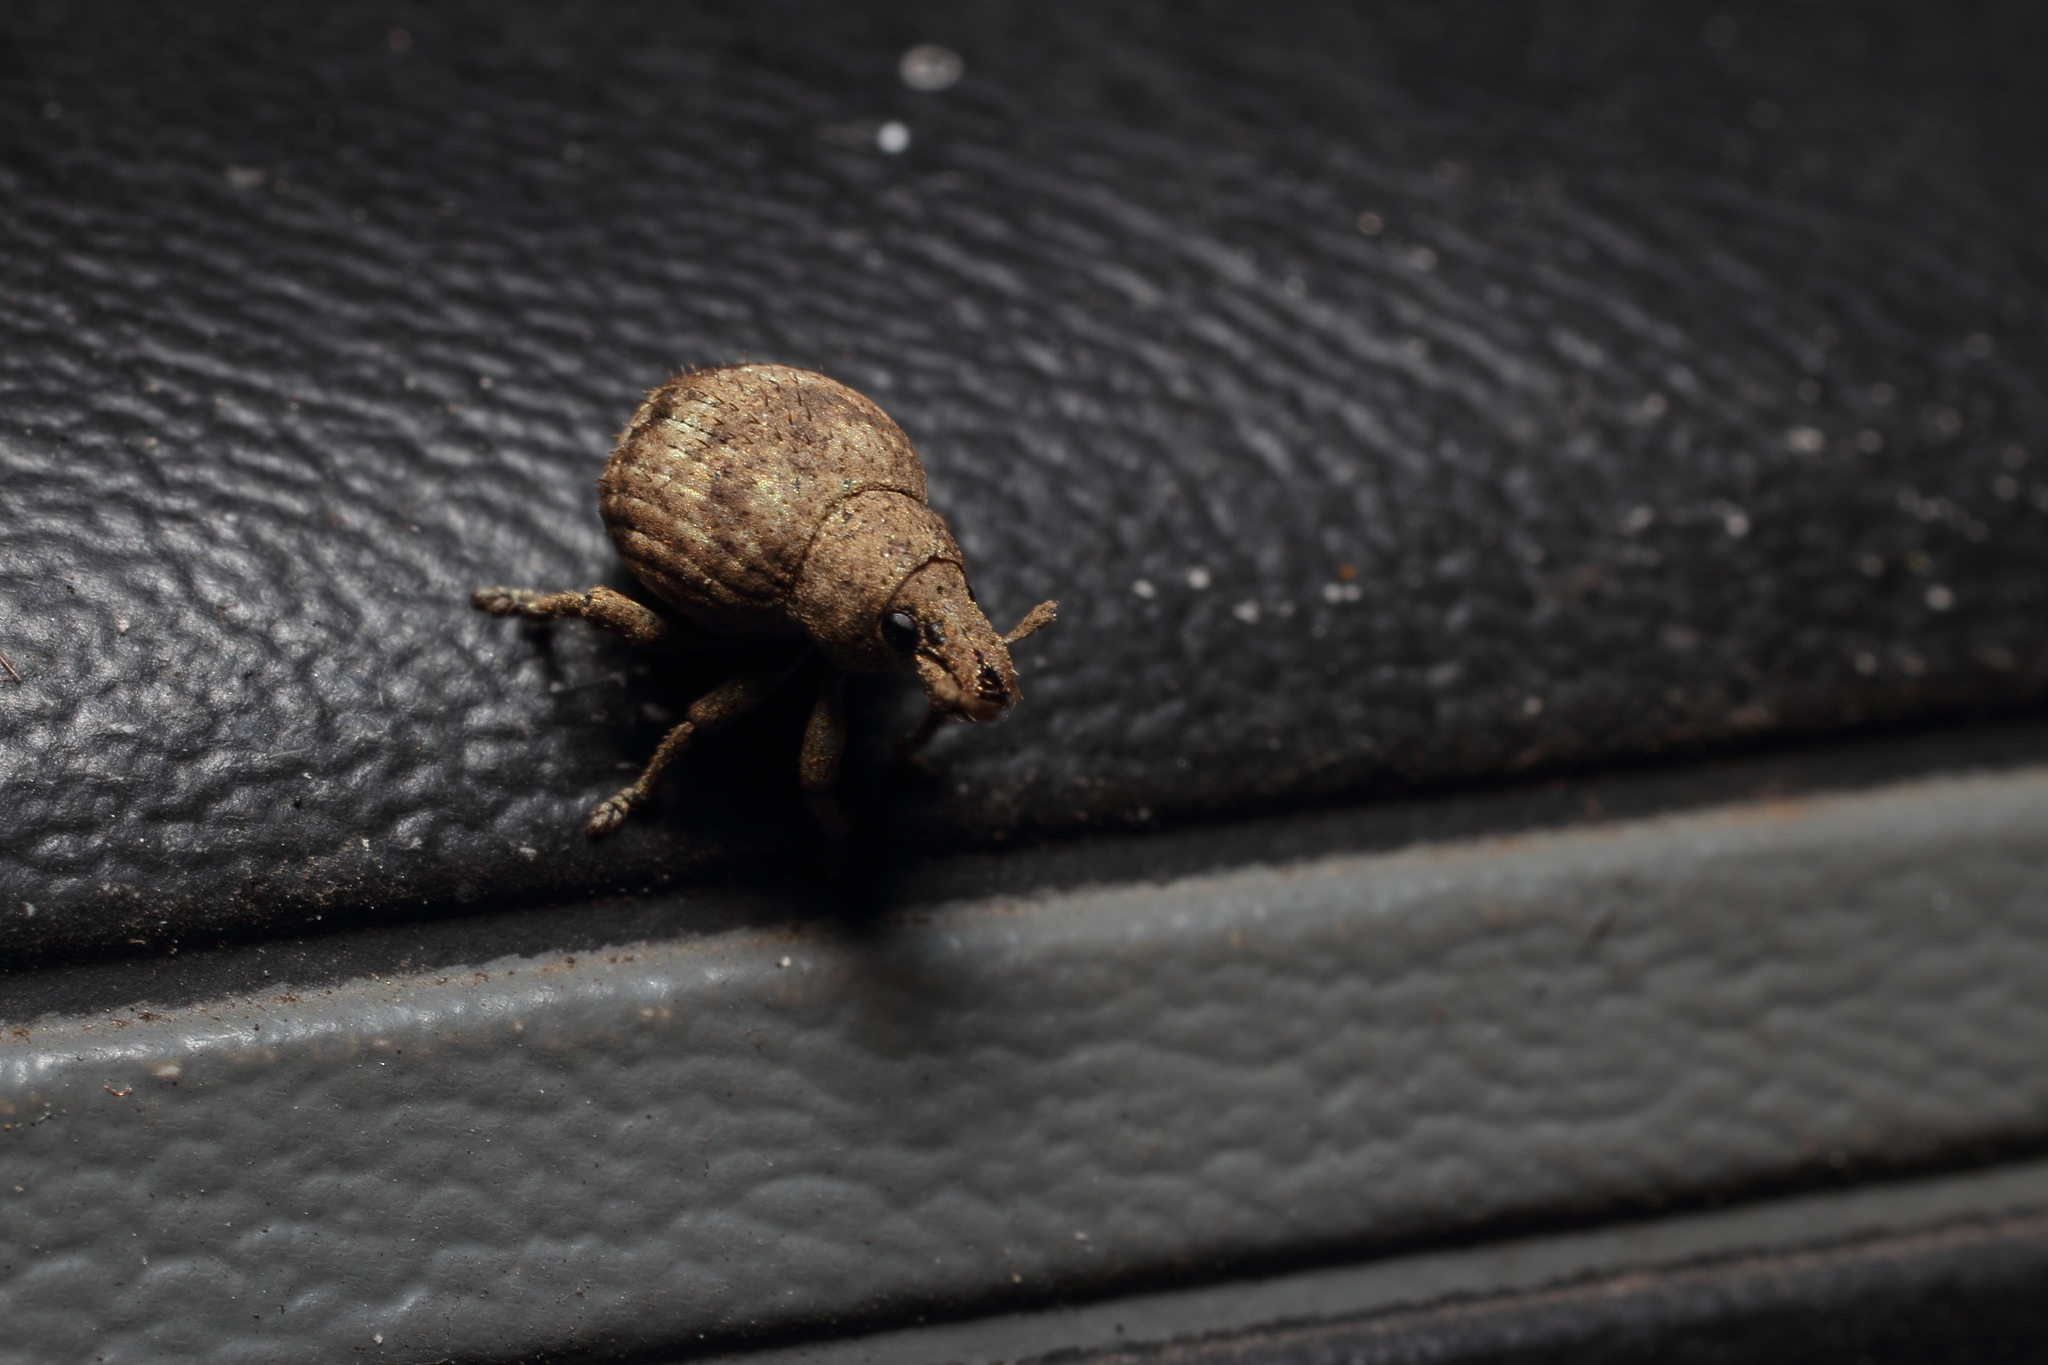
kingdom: Animalia
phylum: Arthropoda
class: Insecta
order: Coleoptera
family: Curculionidae
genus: Pseudocneorhinus
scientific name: Pseudocneorhinus bifasciatus
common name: Two-banded japanese weevil
